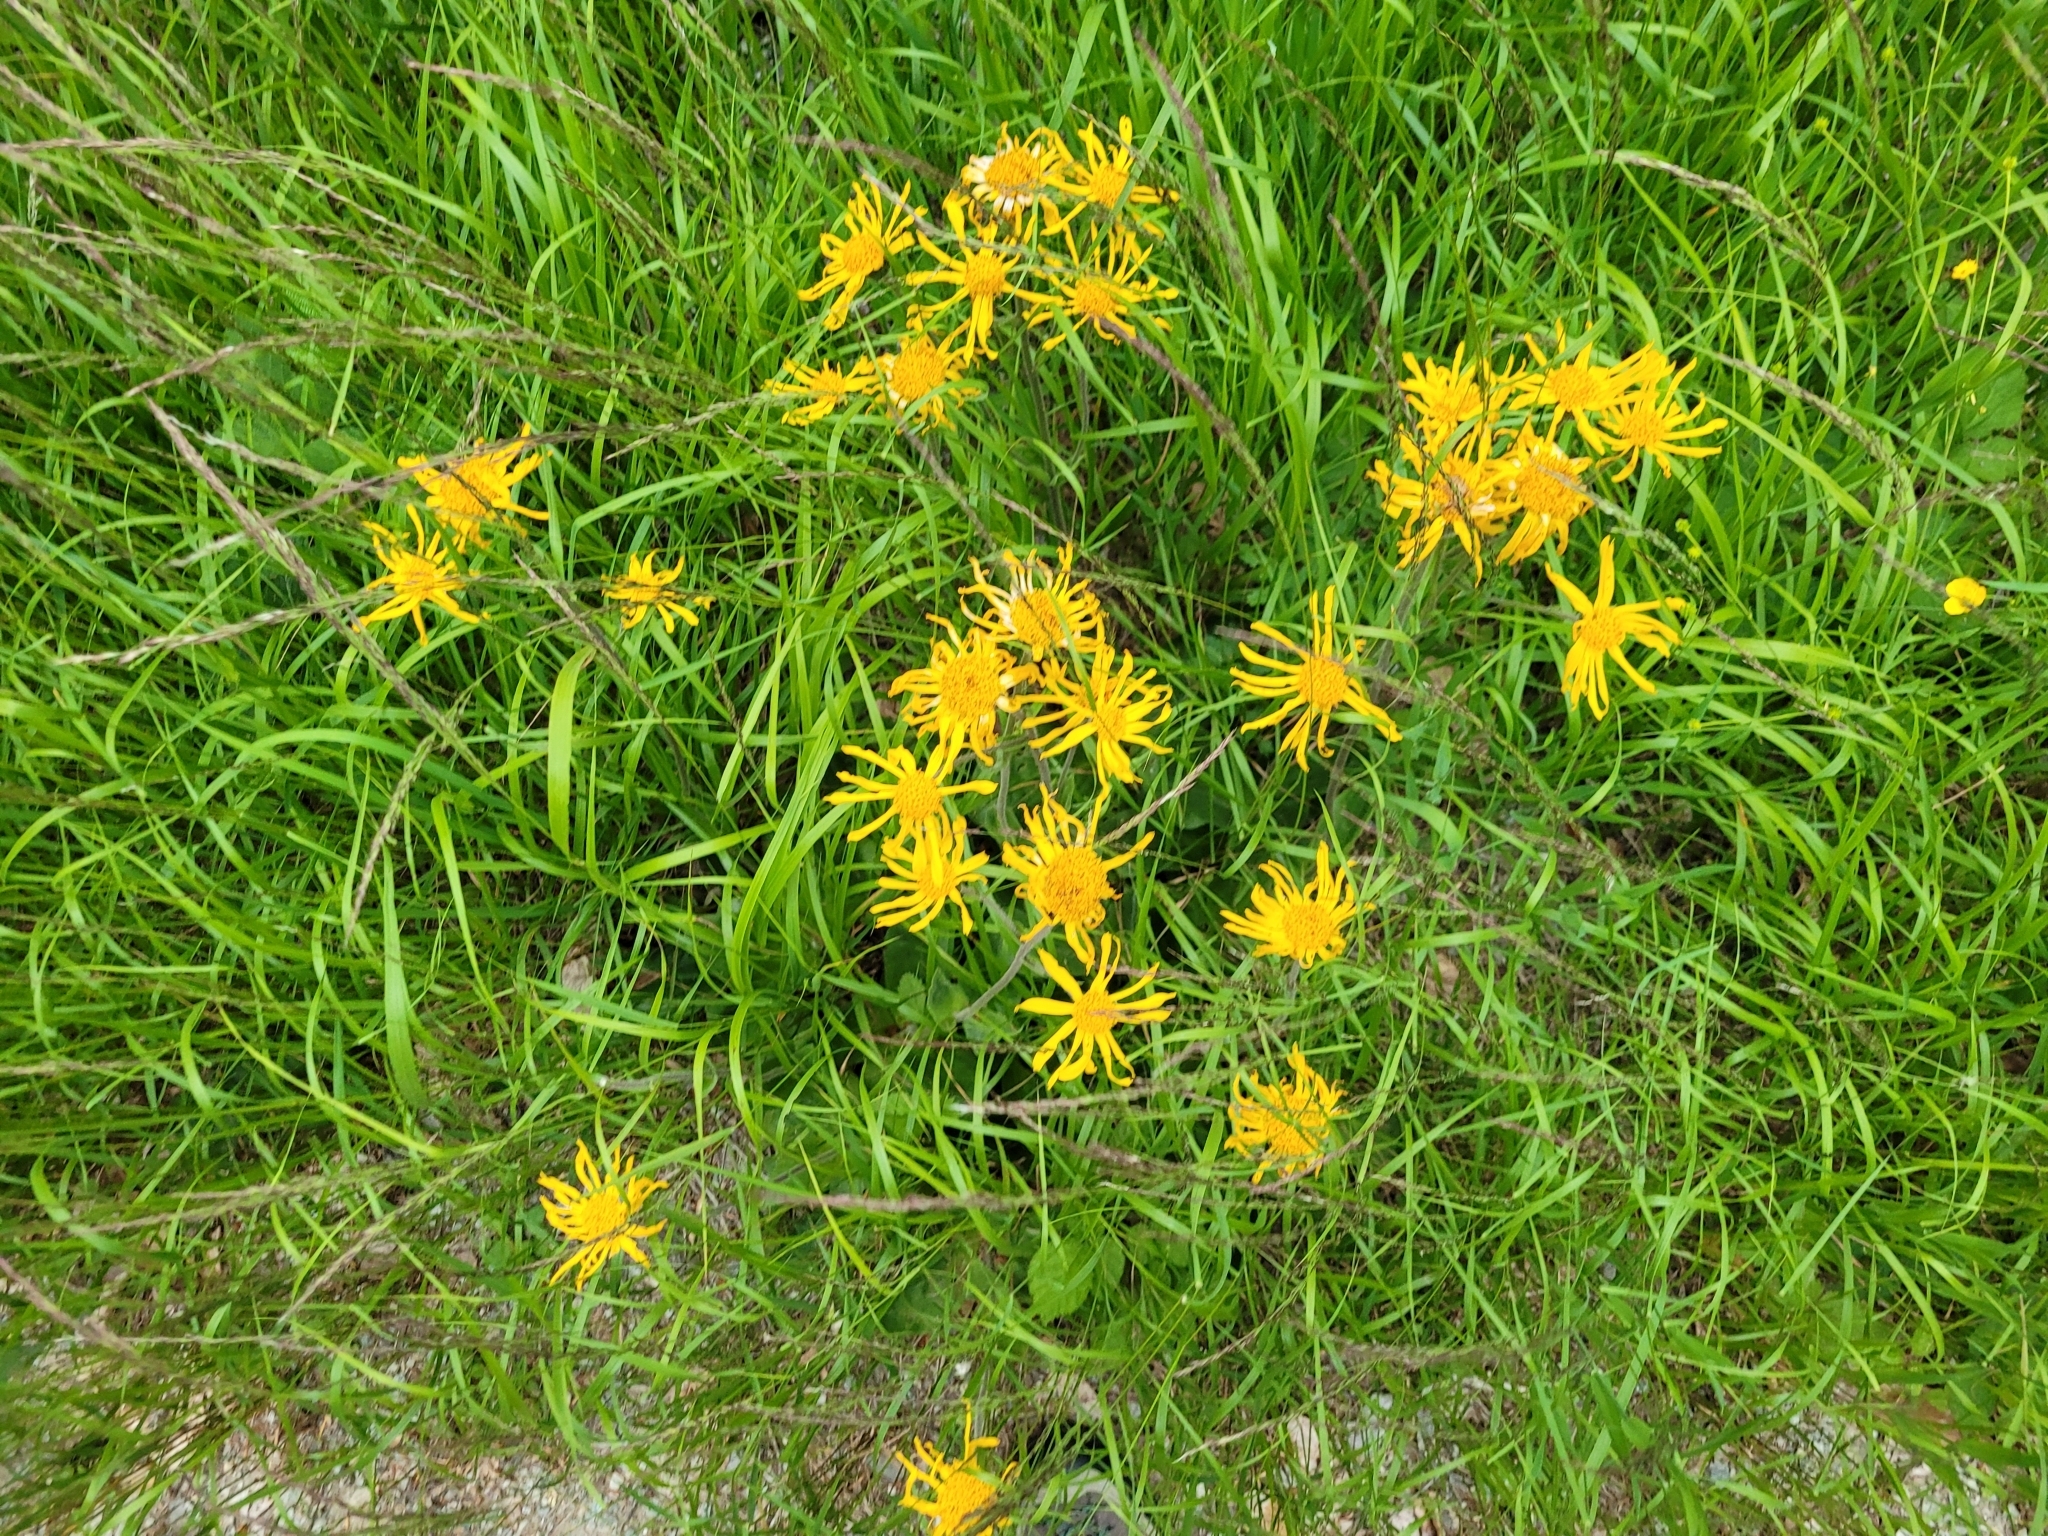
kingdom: Plantae
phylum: Tracheophyta
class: Magnoliopsida
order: Asterales
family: Asteraceae
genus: Arnica
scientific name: Arnica montana
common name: Leopard's bane
